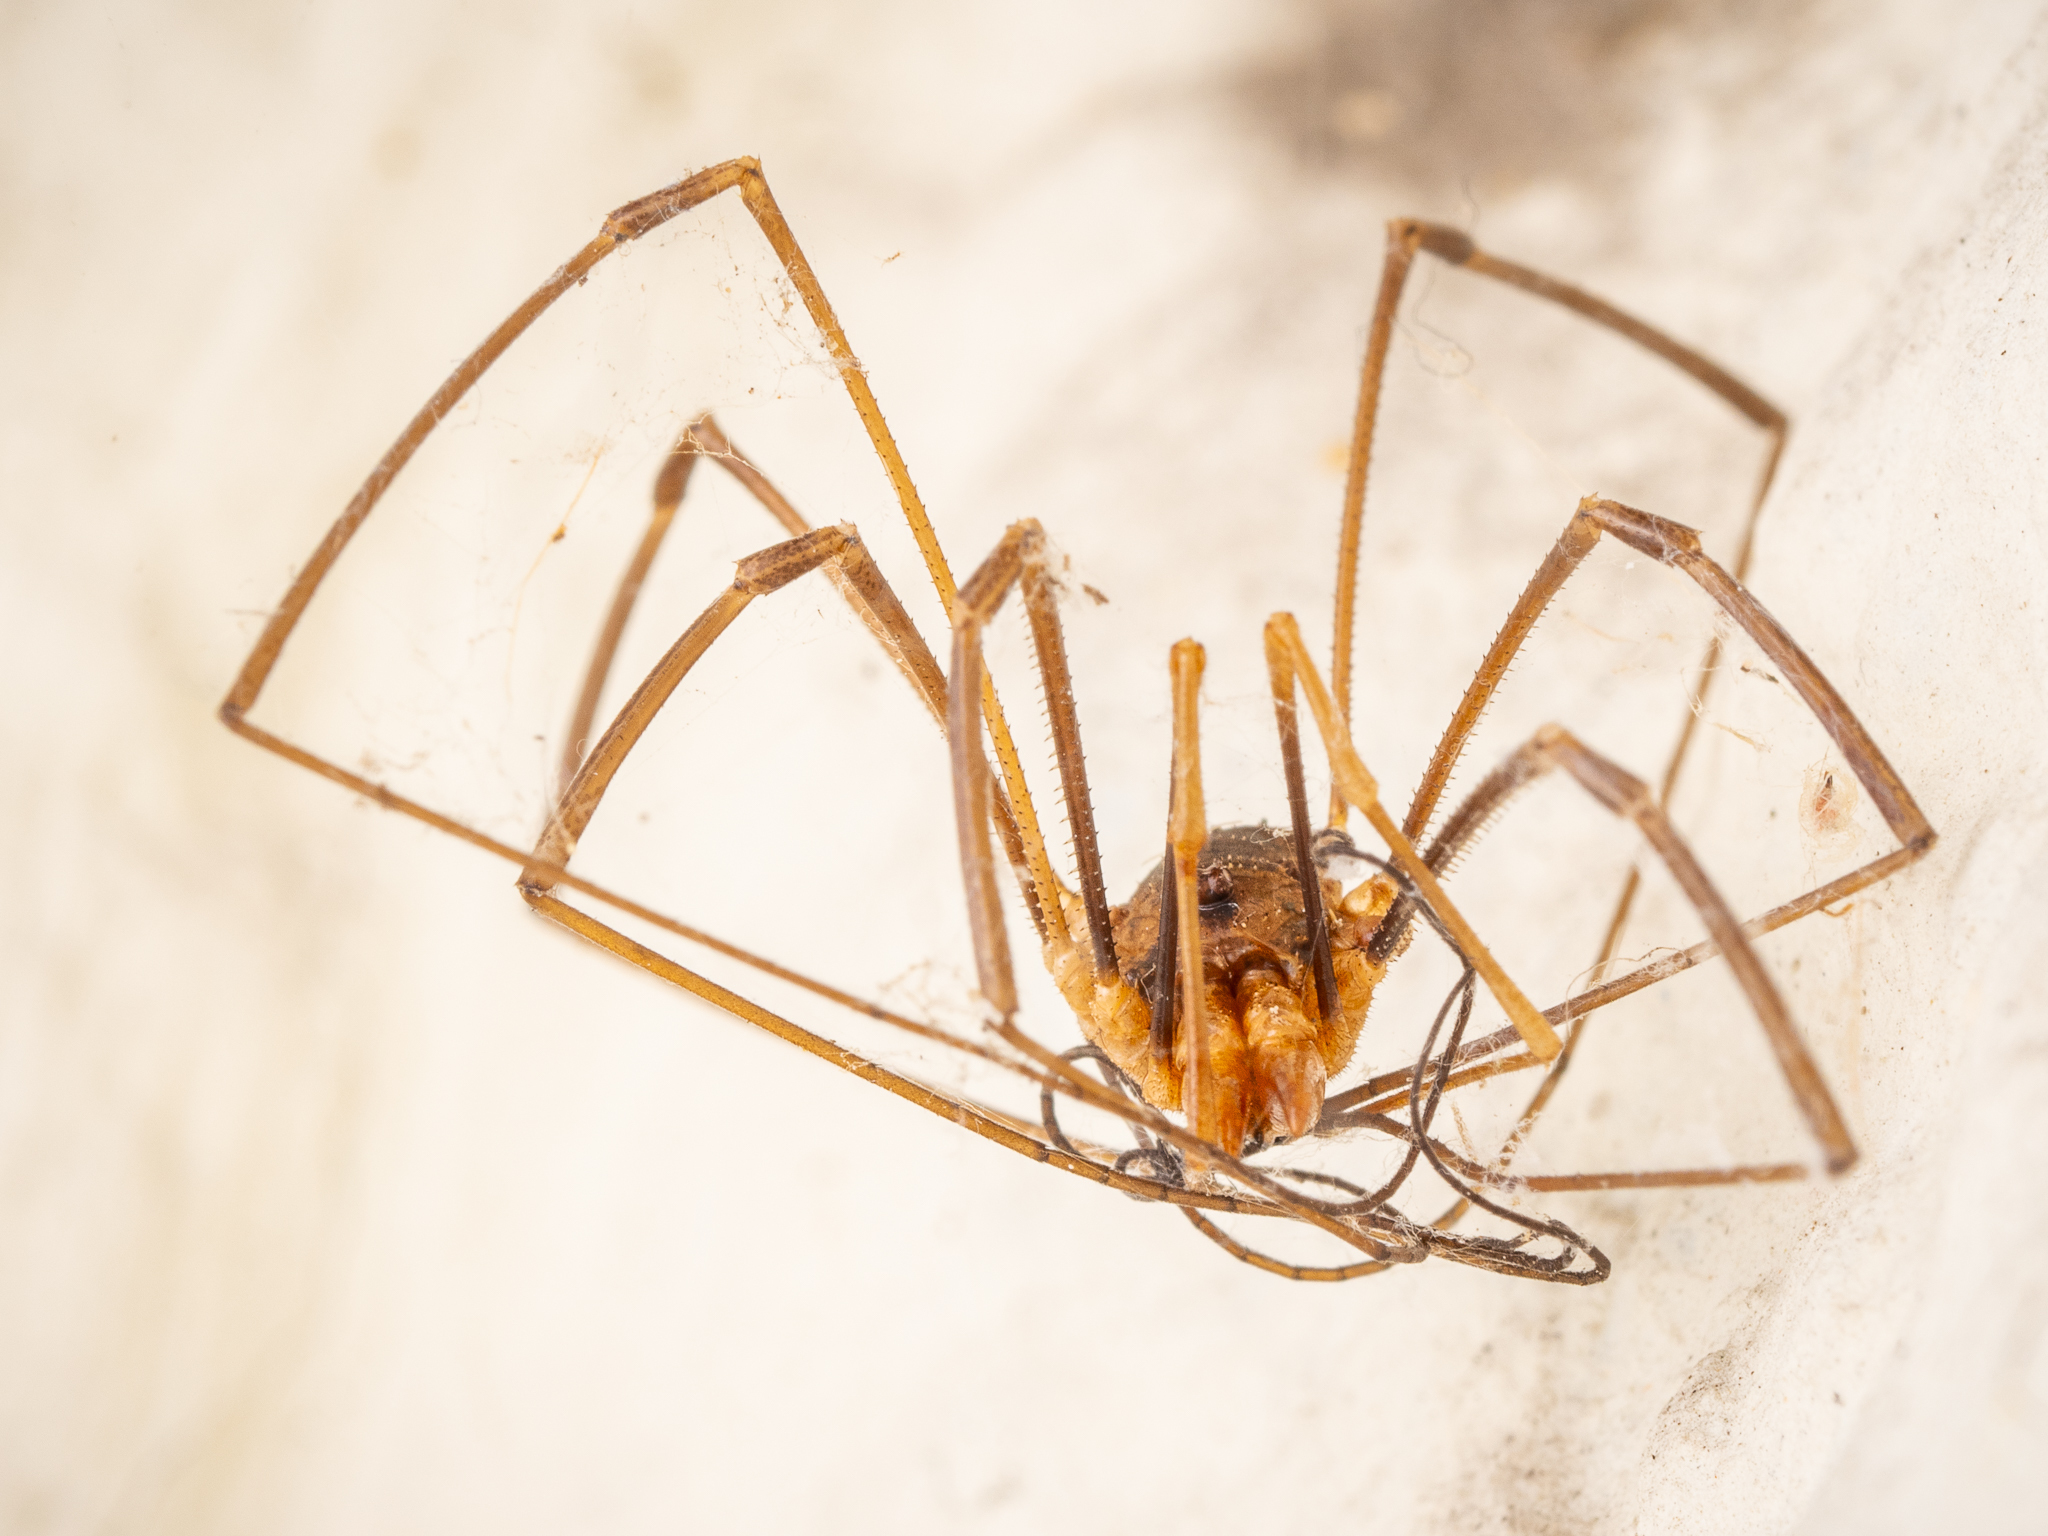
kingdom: Animalia
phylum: Arthropoda
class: Arachnida
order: Opiliones
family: Phalangiidae
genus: Phalangium
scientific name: Phalangium opilio
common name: Daddy longleg
